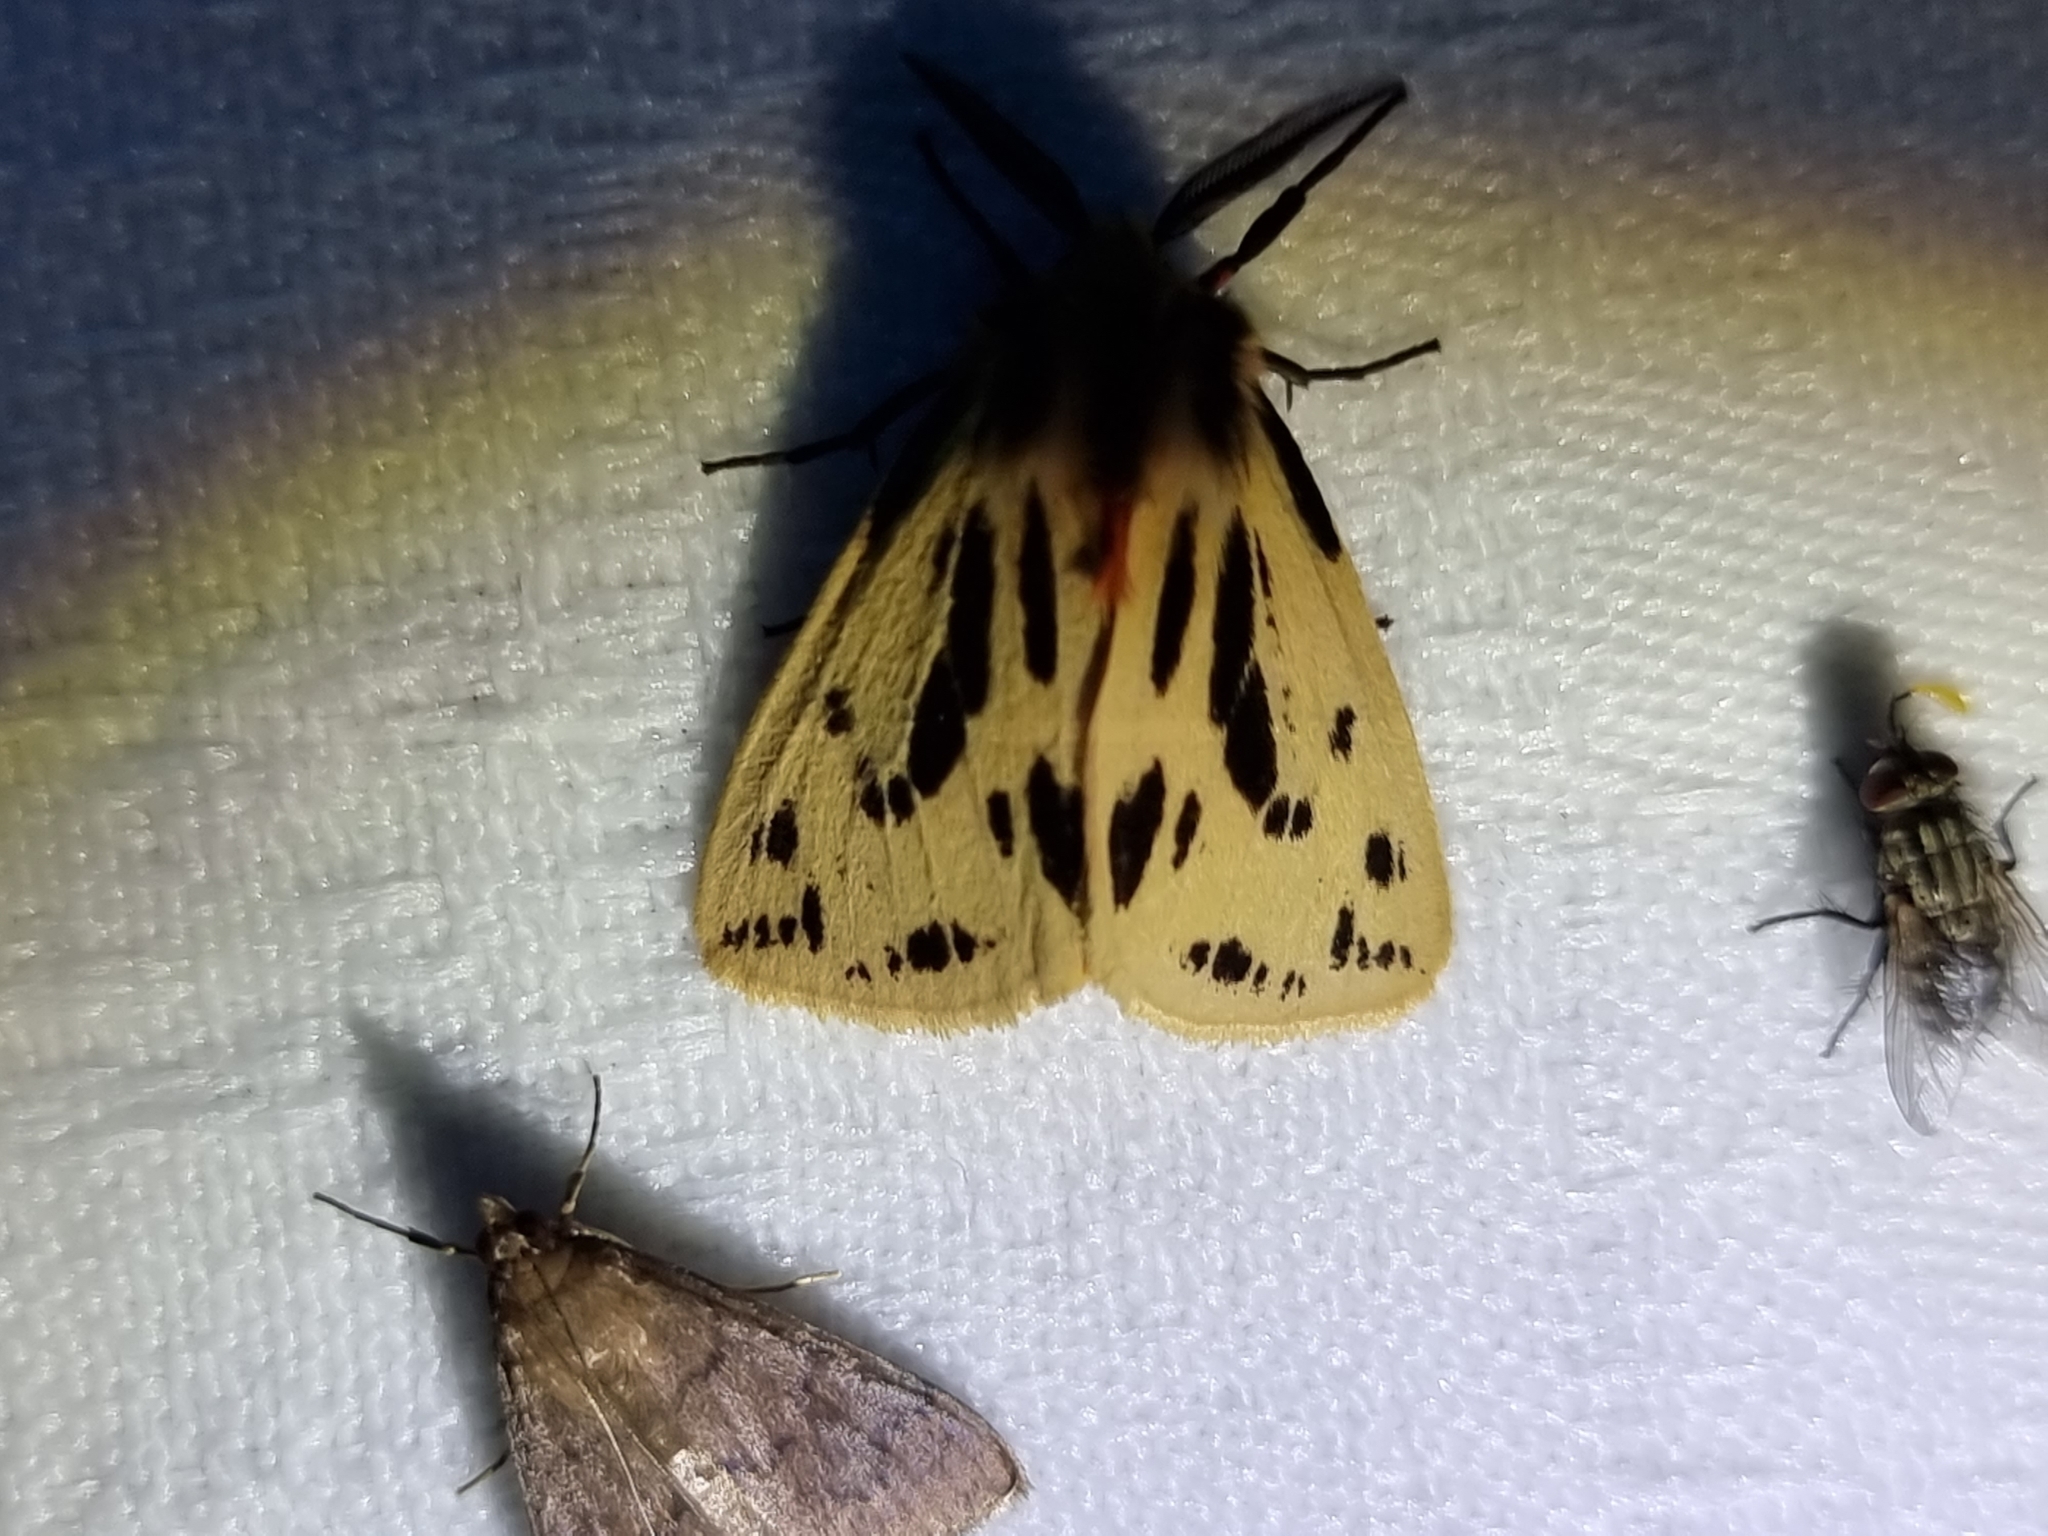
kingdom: Animalia
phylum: Arthropoda
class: Insecta
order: Lepidoptera
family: Erebidae
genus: Ardices
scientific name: Ardices curvata
